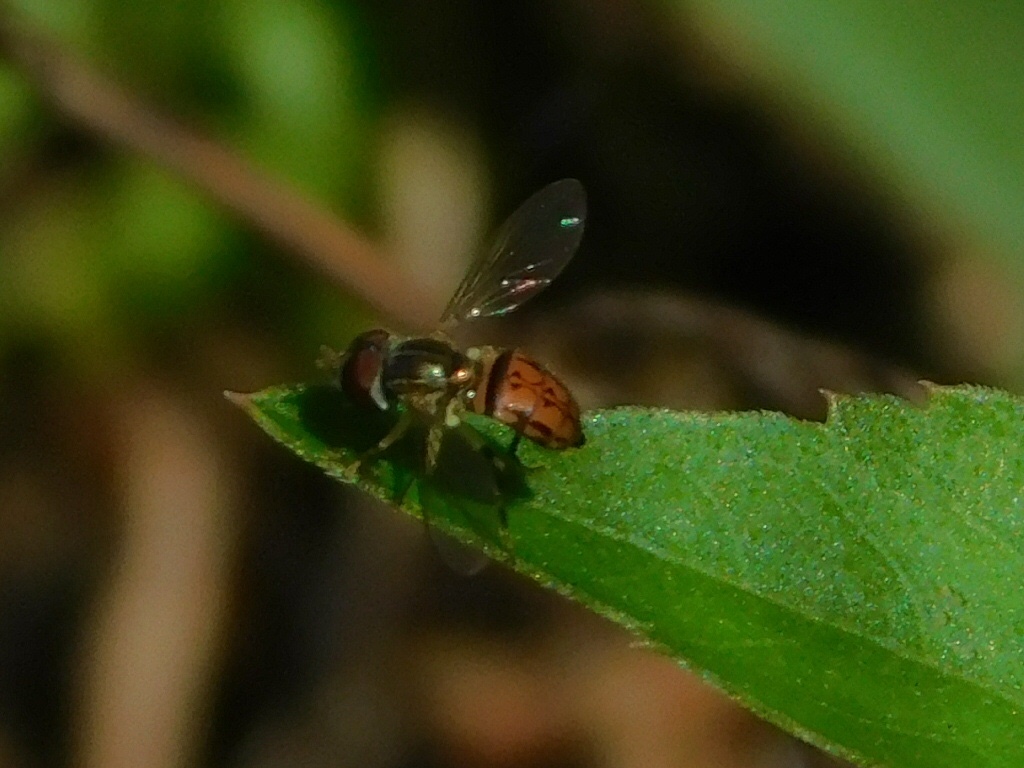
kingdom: Animalia
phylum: Arthropoda
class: Insecta
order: Diptera
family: Syrphidae
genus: Toxomerus
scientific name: Toxomerus boscii
